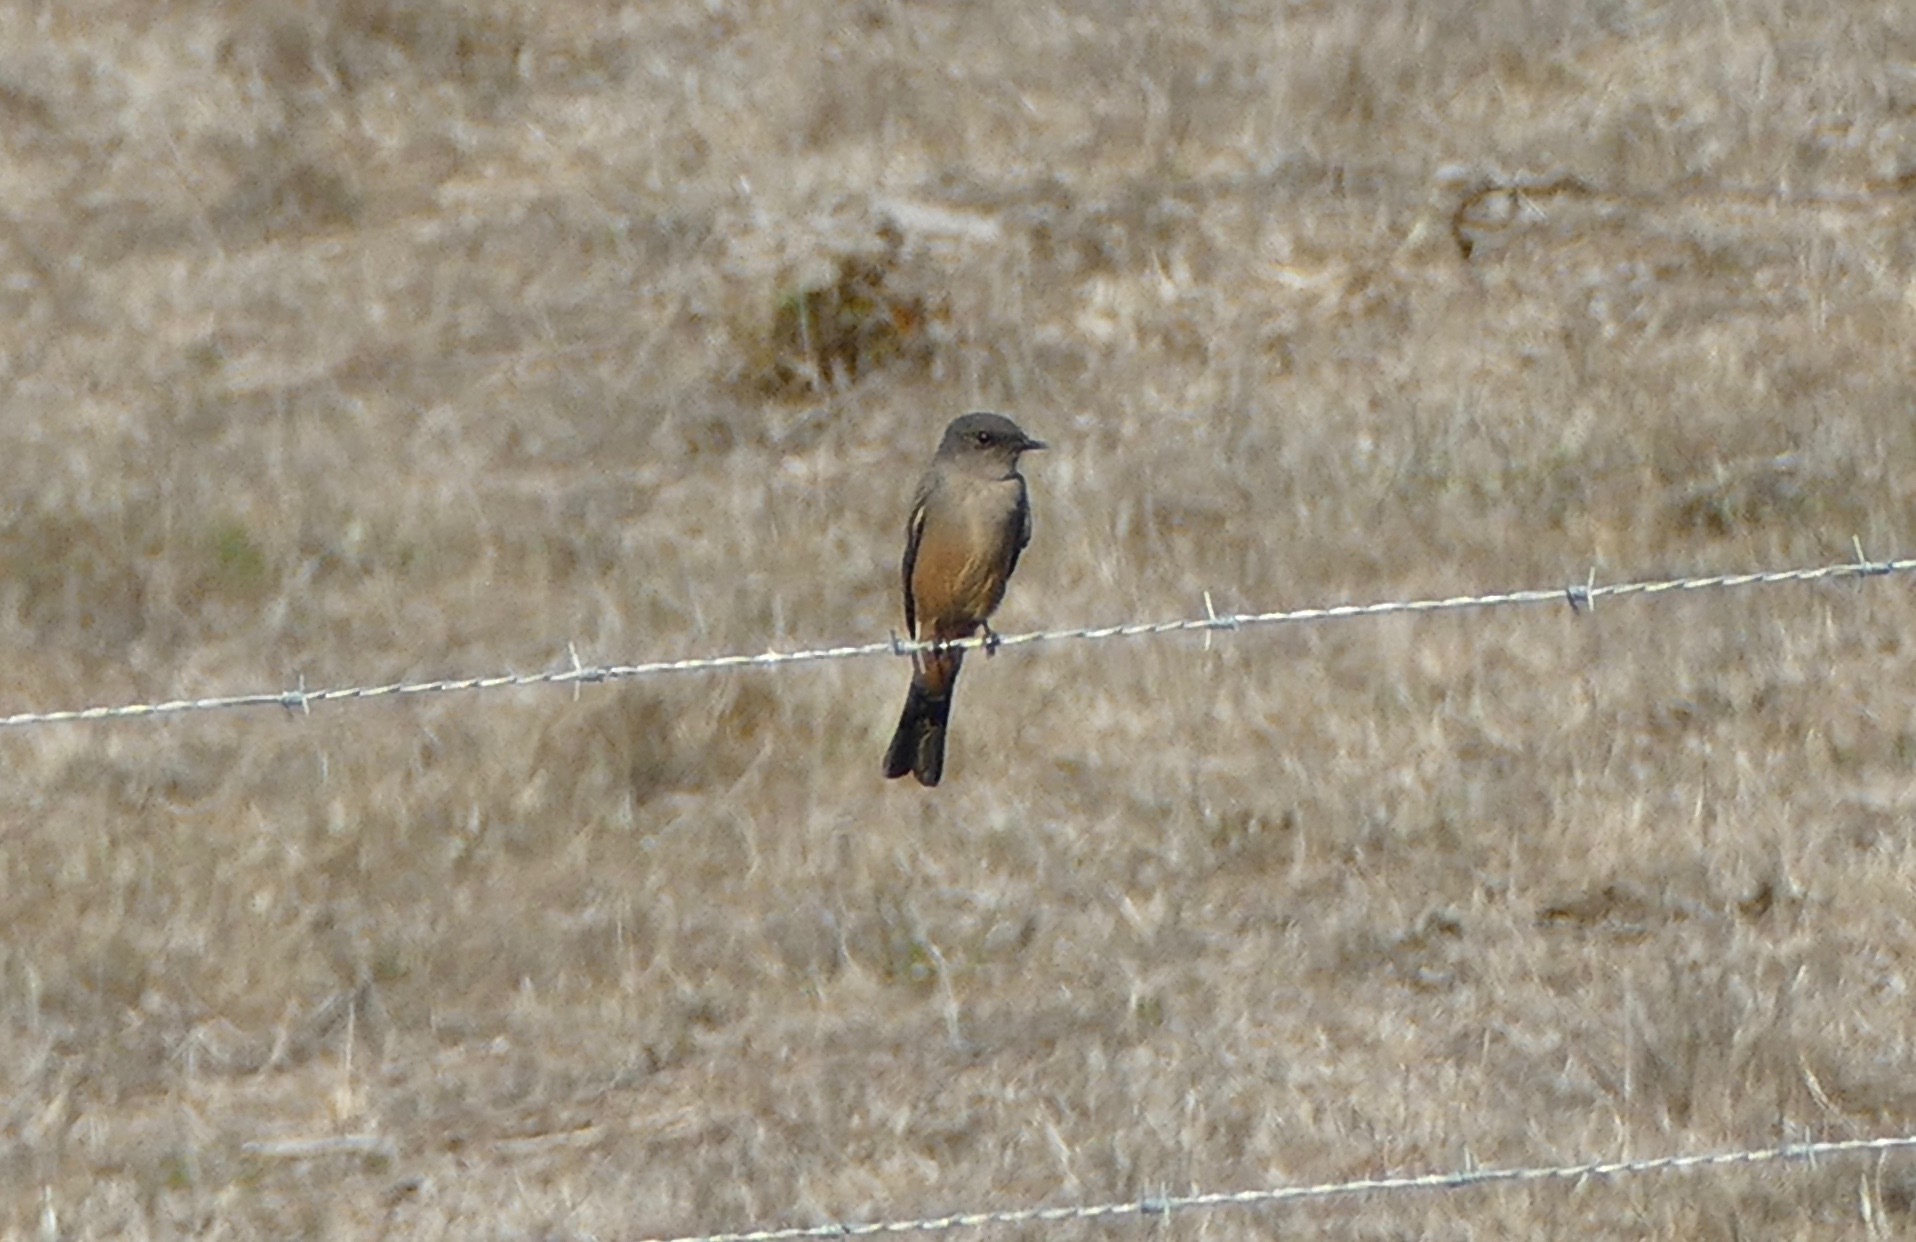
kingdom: Animalia
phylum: Chordata
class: Aves
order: Passeriformes
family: Tyrannidae
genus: Sayornis
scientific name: Sayornis saya
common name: Say's phoebe
